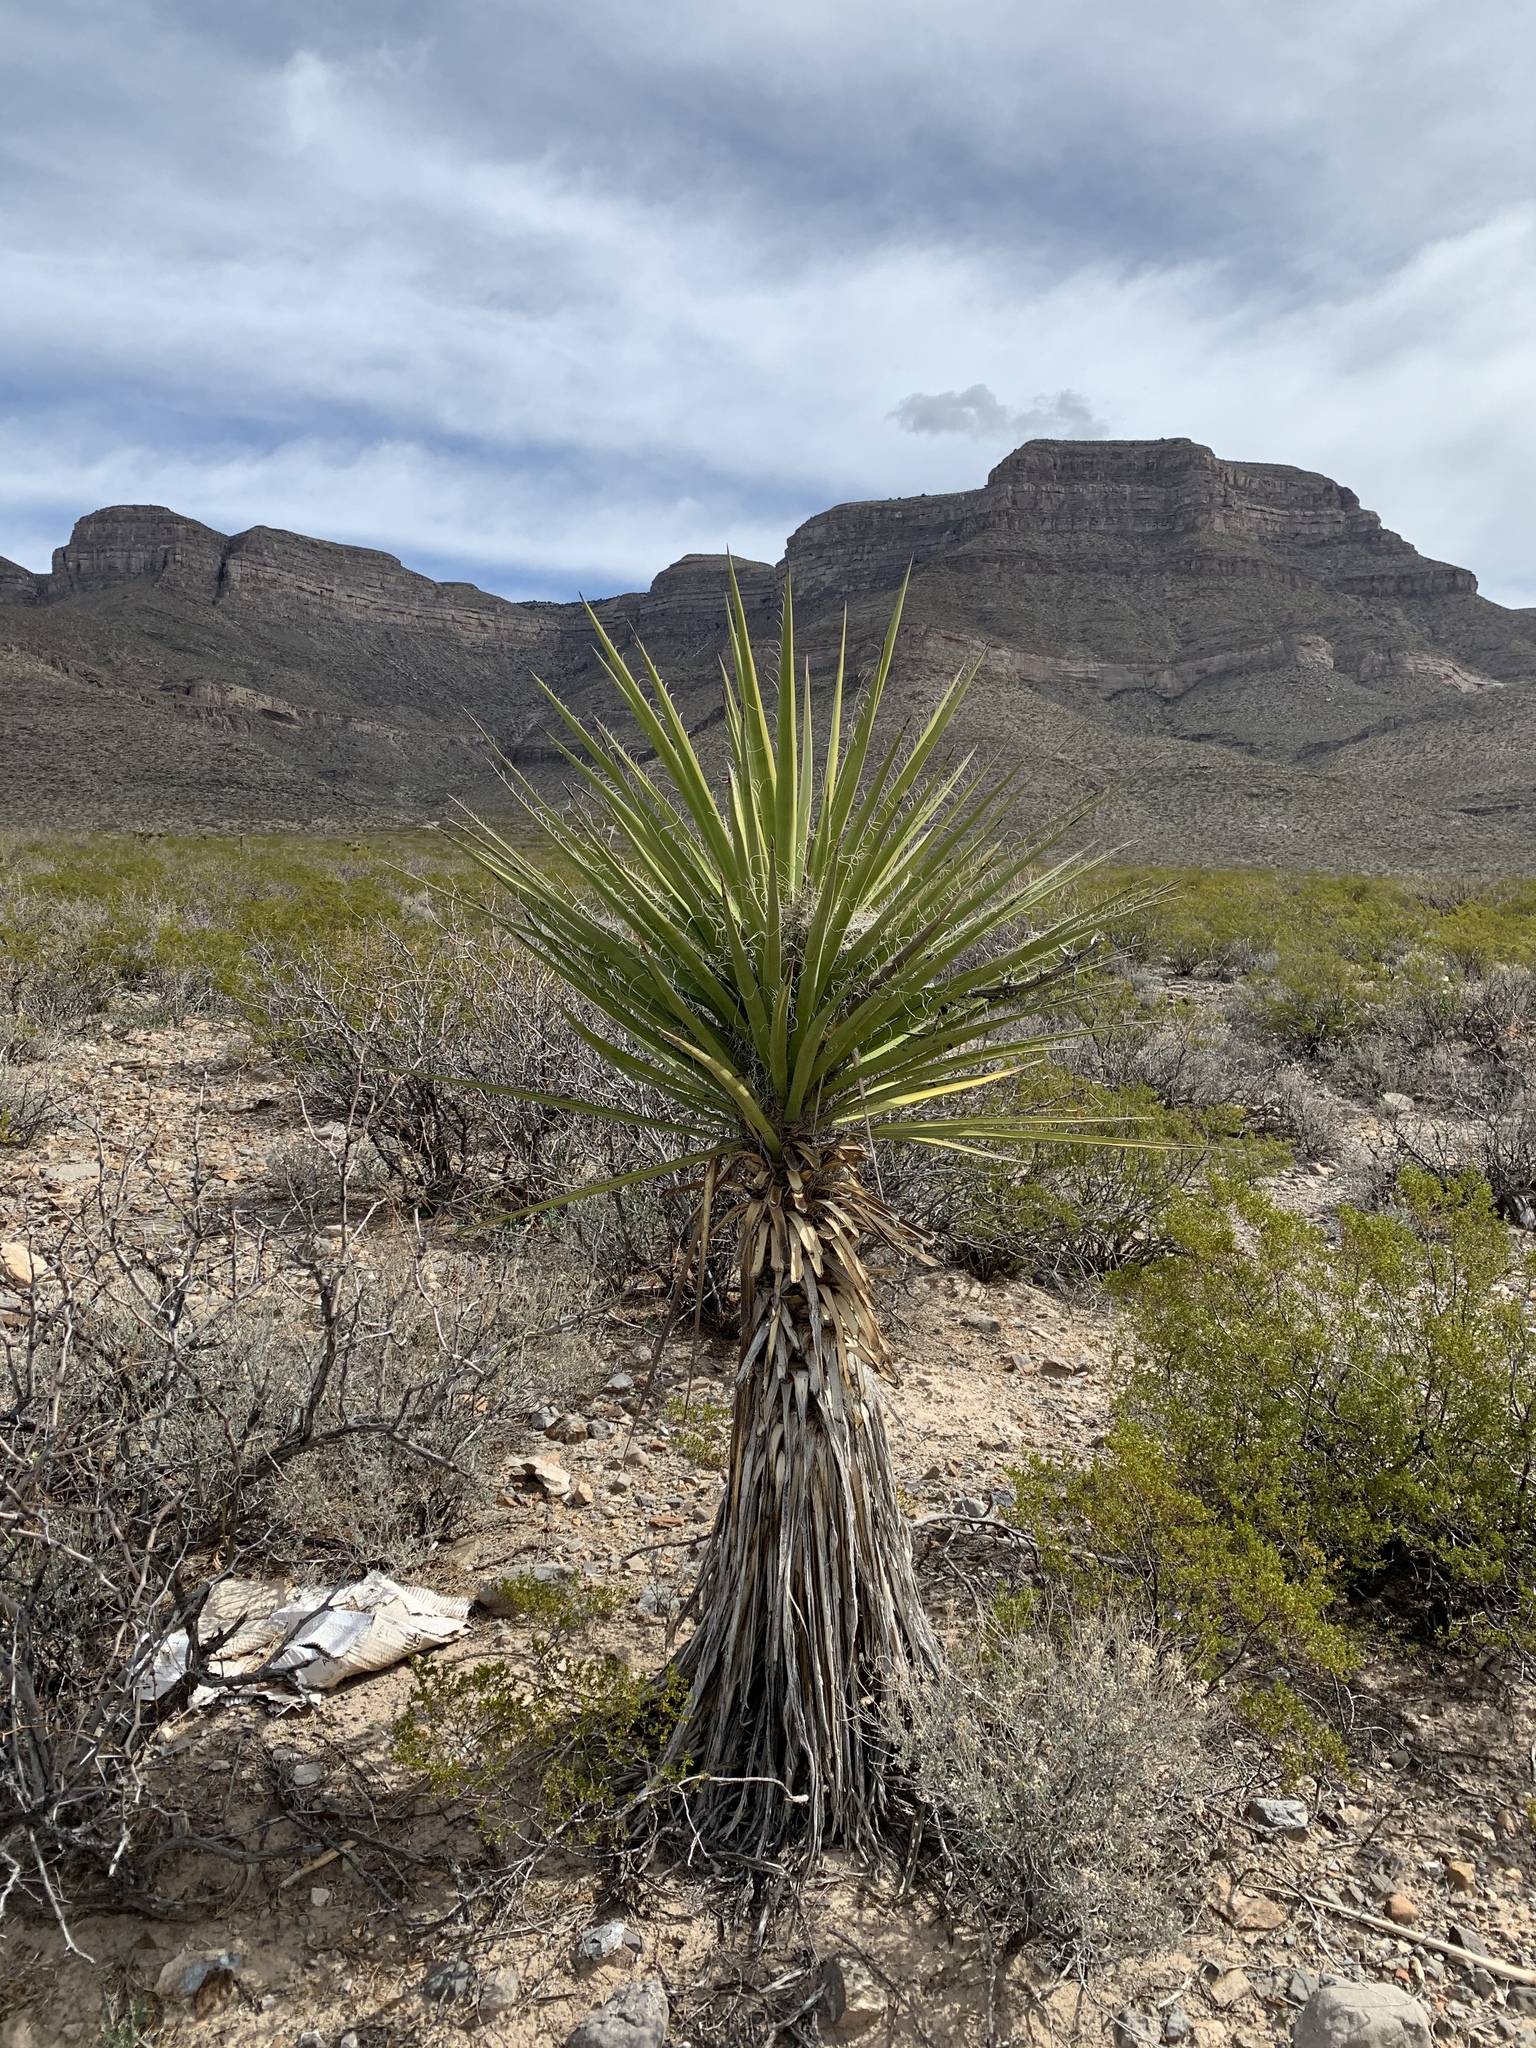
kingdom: Plantae
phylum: Tracheophyta
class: Liliopsida
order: Asparagales
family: Asparagaceae
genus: Yucca
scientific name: Yucca treculiana
